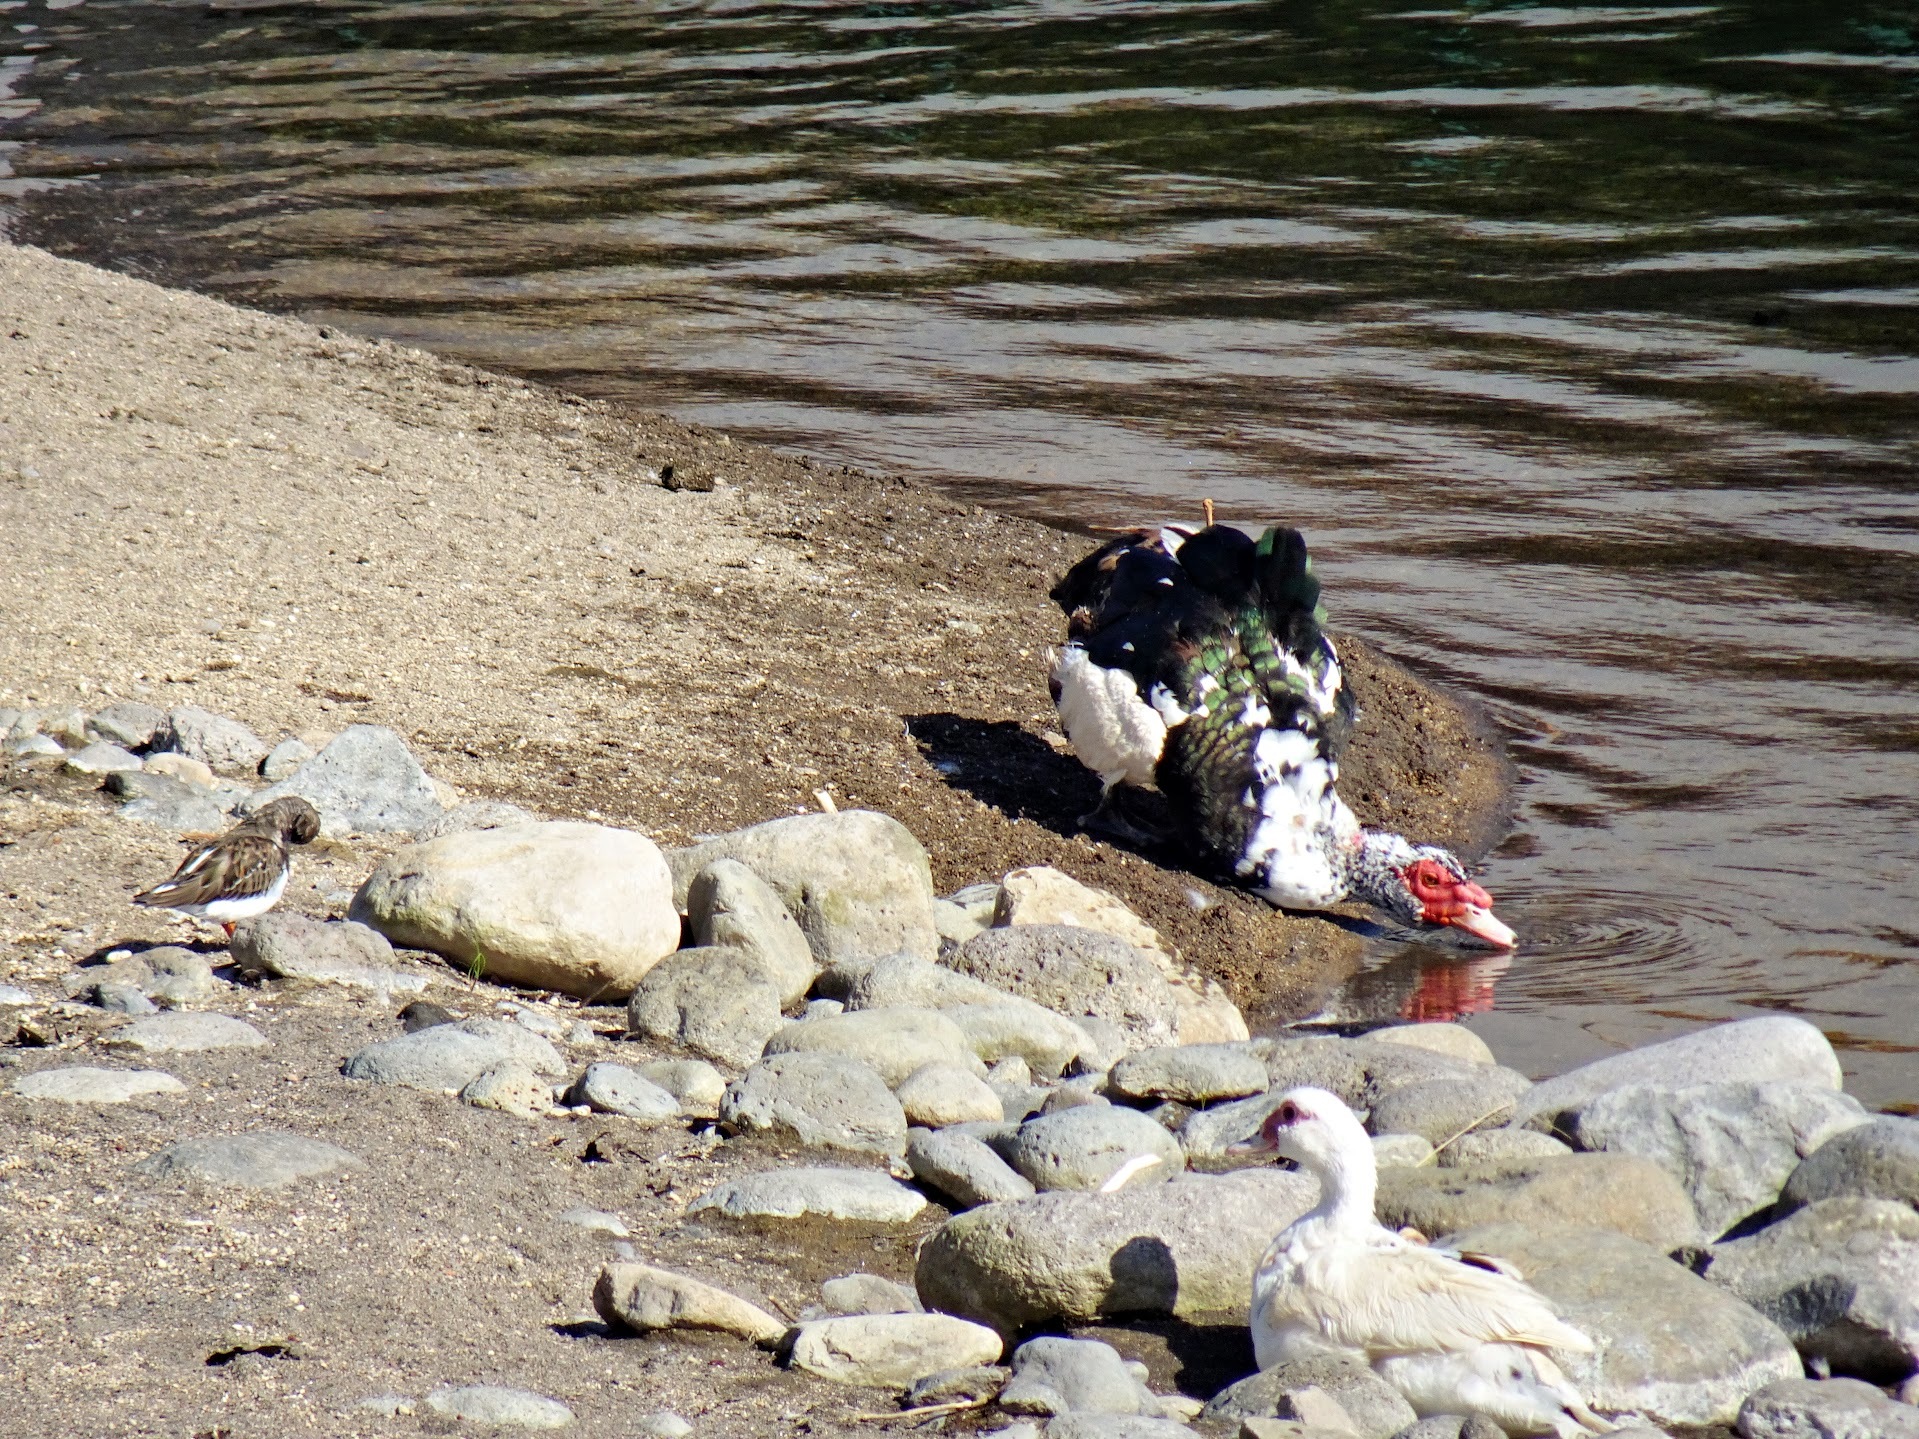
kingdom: Animalia
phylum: Chordata
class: Aves
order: Anseriformes
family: Anatidae
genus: Cairina
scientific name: Cairina moschata
